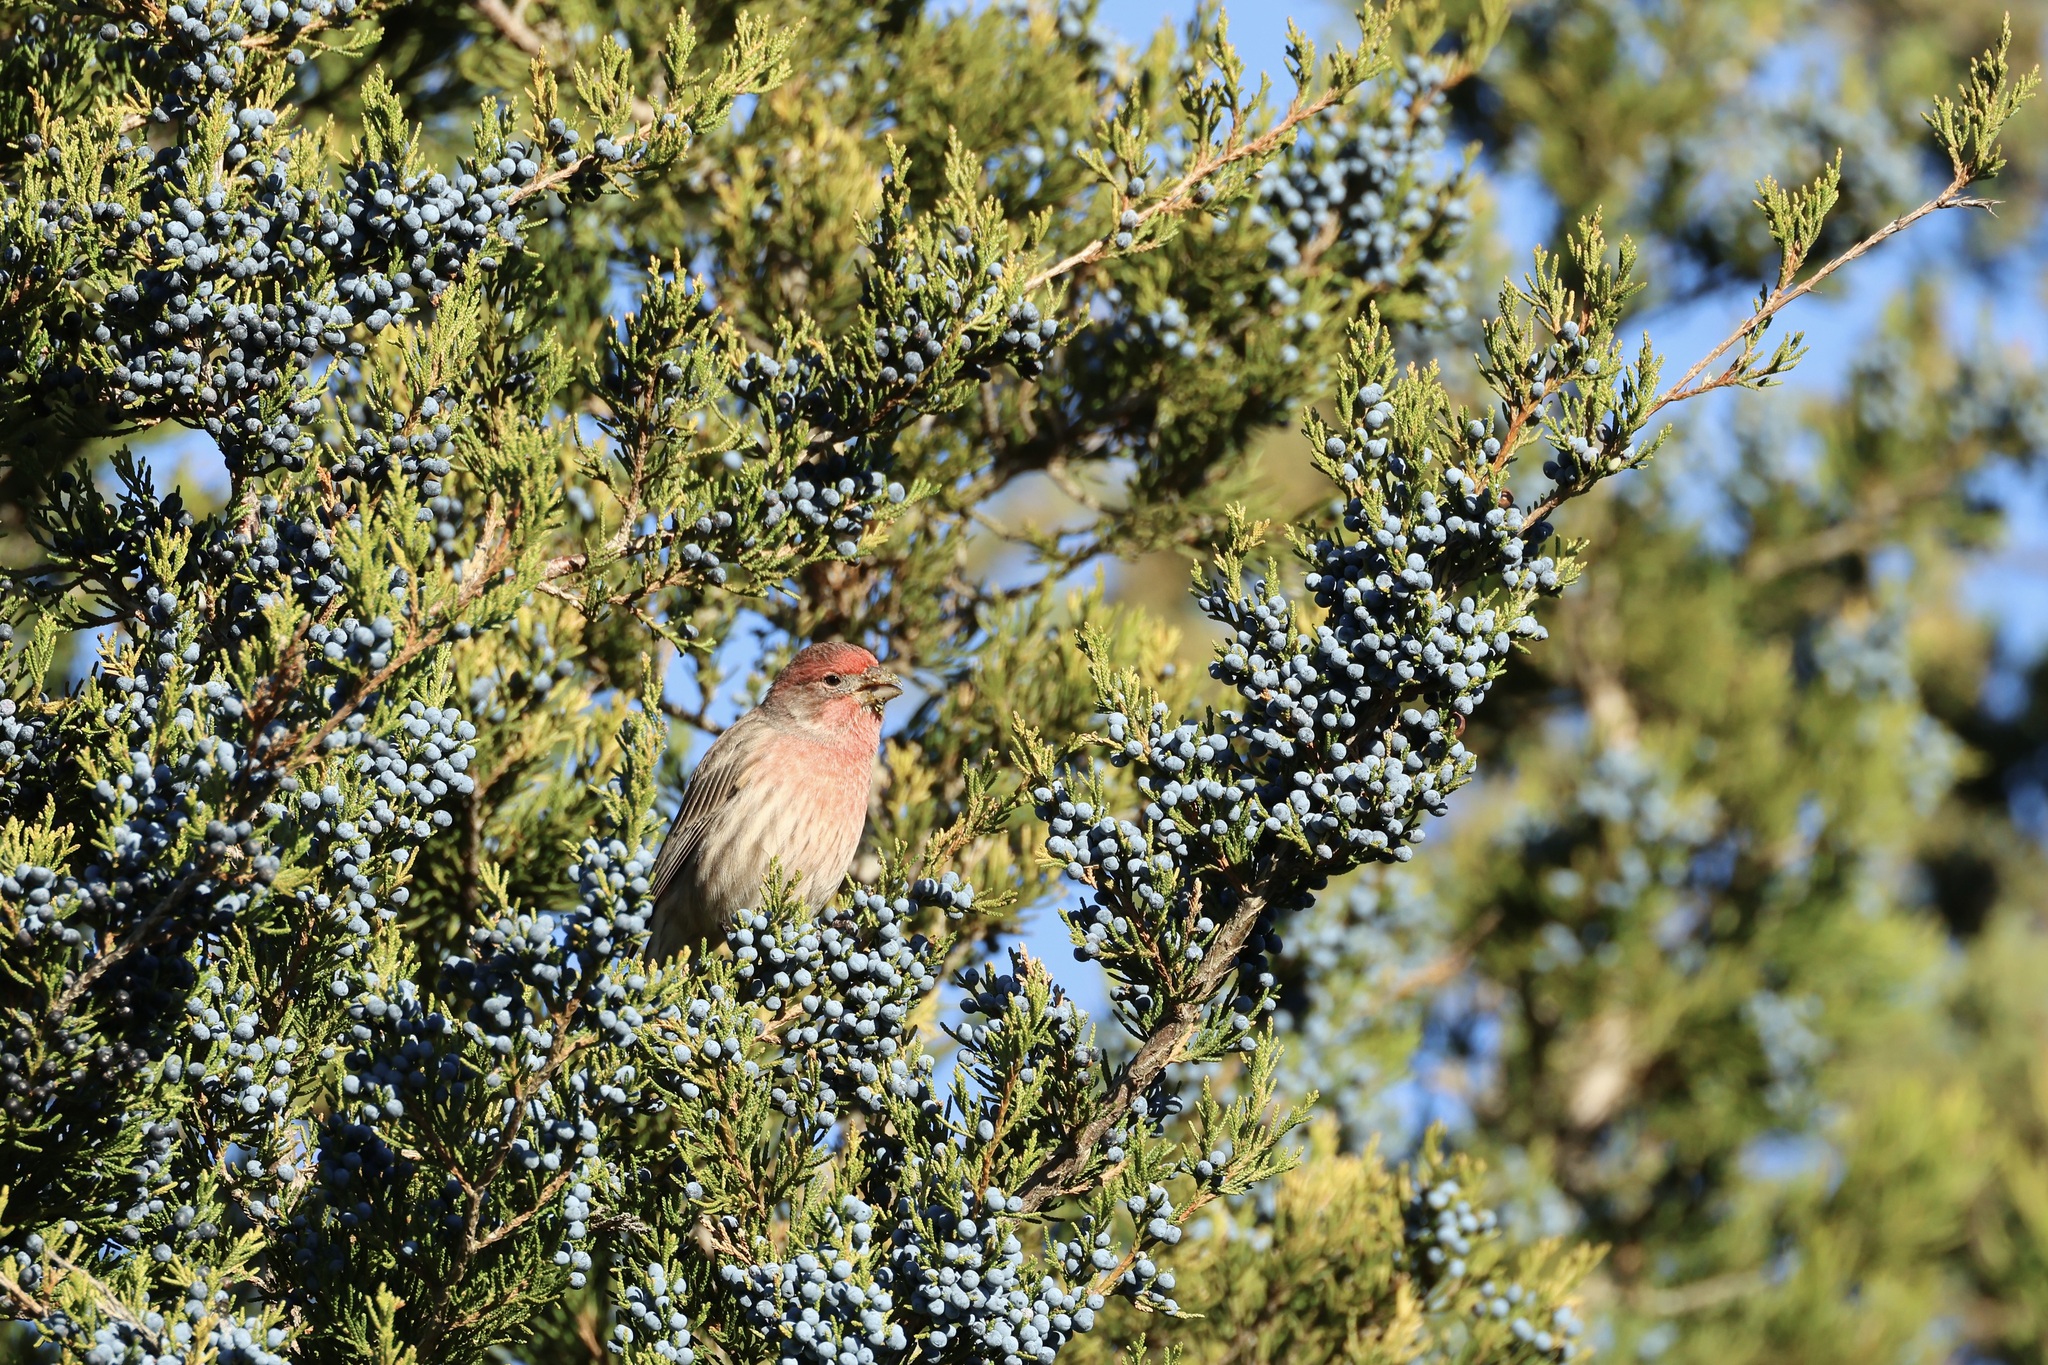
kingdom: Animalia
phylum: Chordata
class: Aves
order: Passeriformes
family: Fringillidae
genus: Haemorhous
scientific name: Haemorhous mexicanus
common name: House finch
